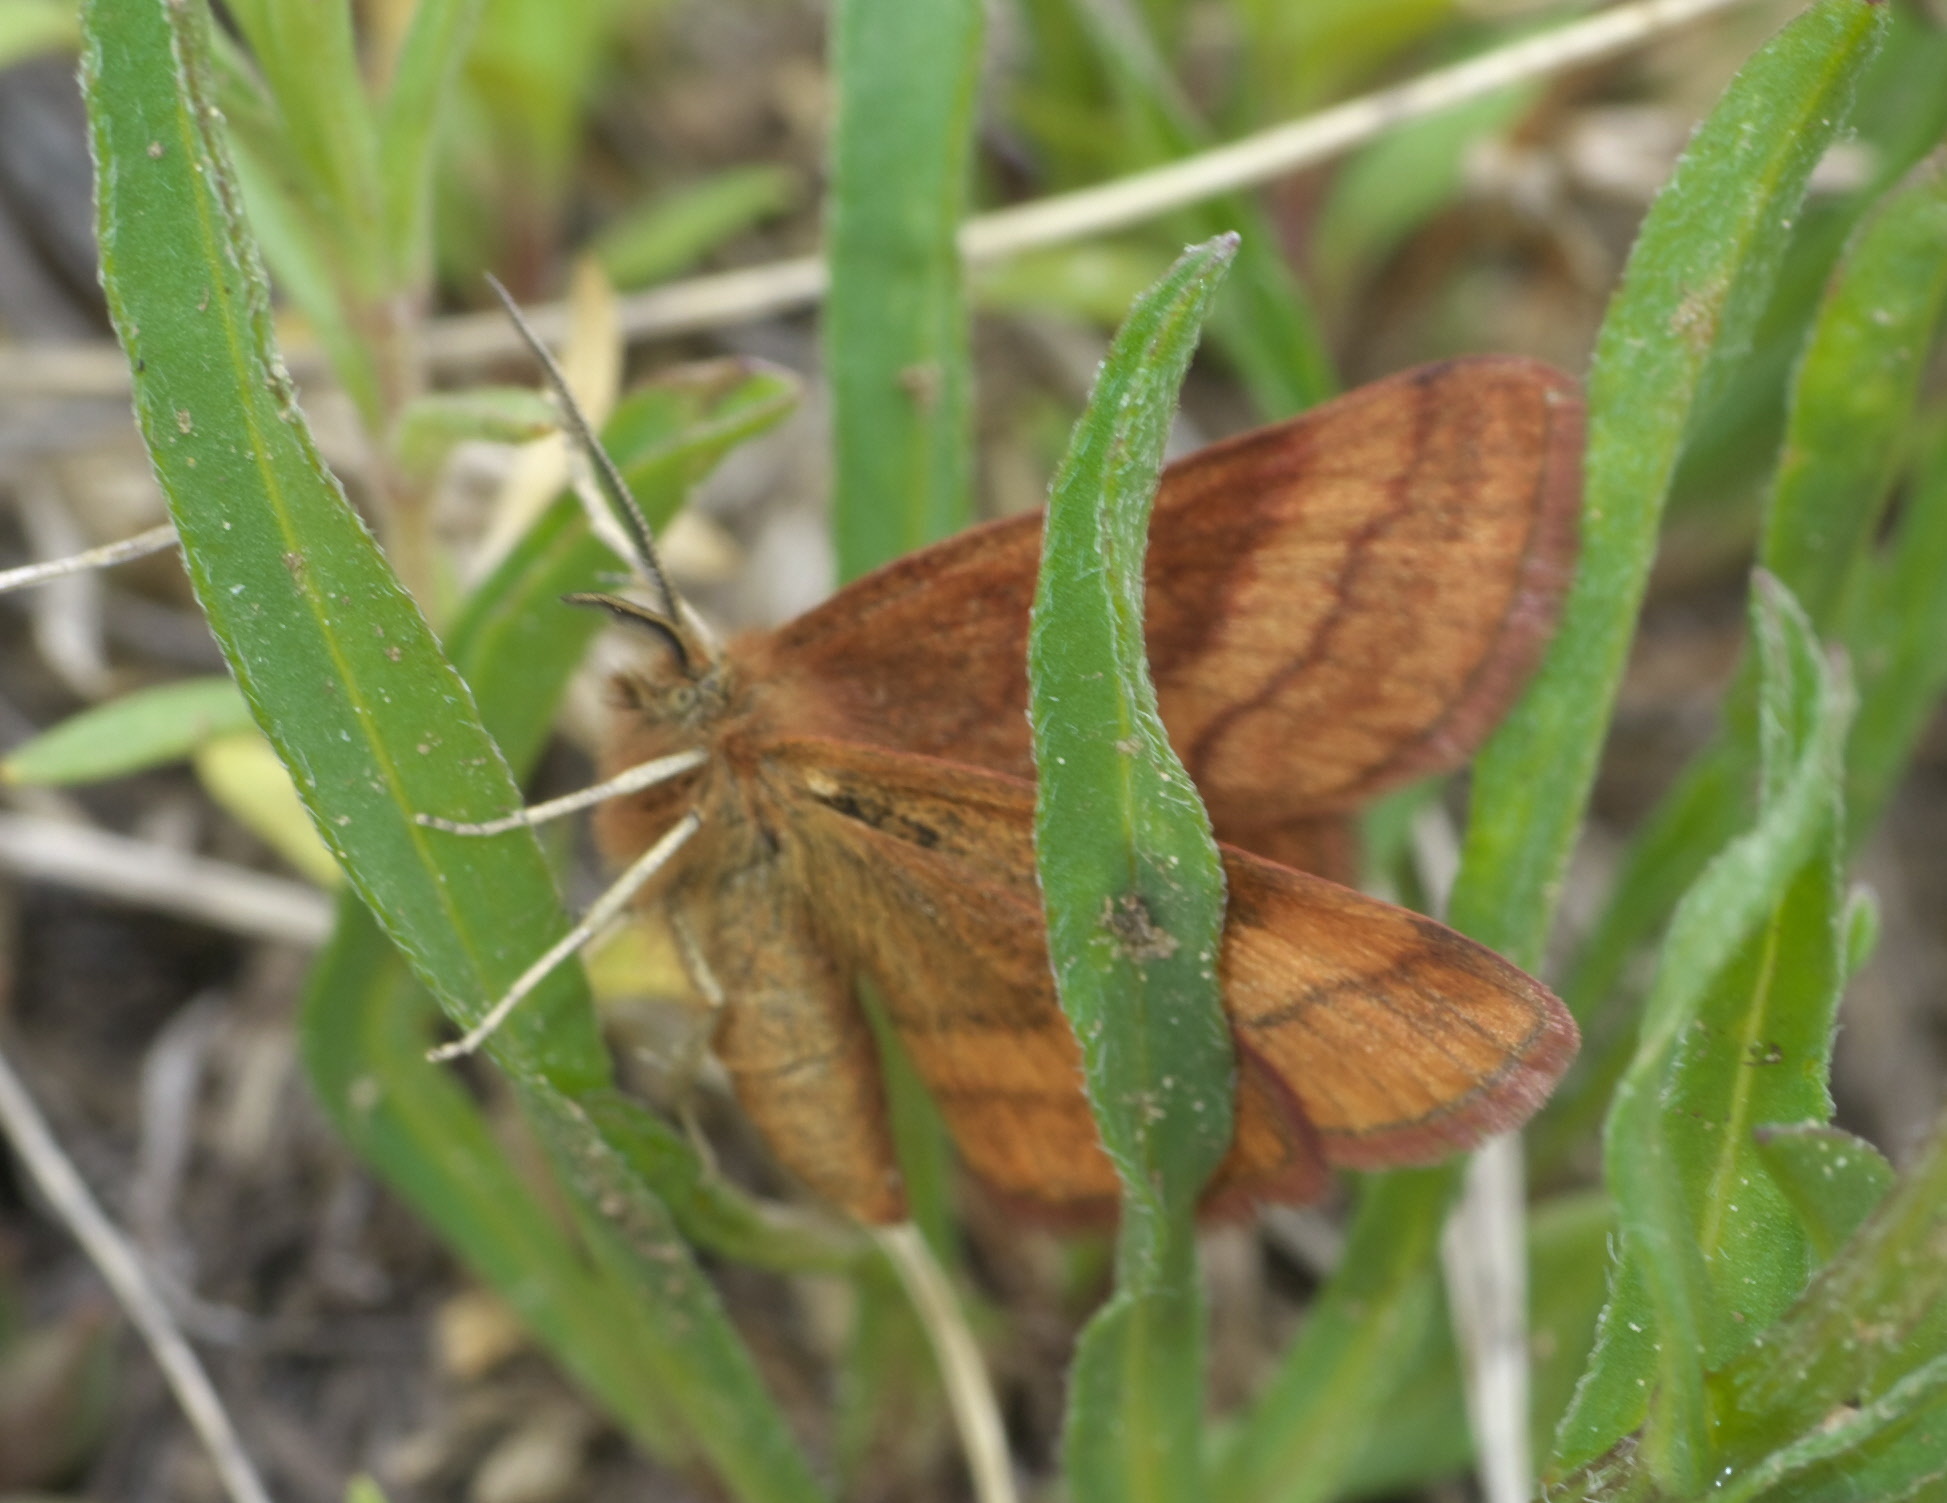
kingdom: Animalia
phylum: Arthropoda
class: Insecta
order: Lepidoptera
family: Geometridae
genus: Scopula
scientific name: Scopula sentinaria
